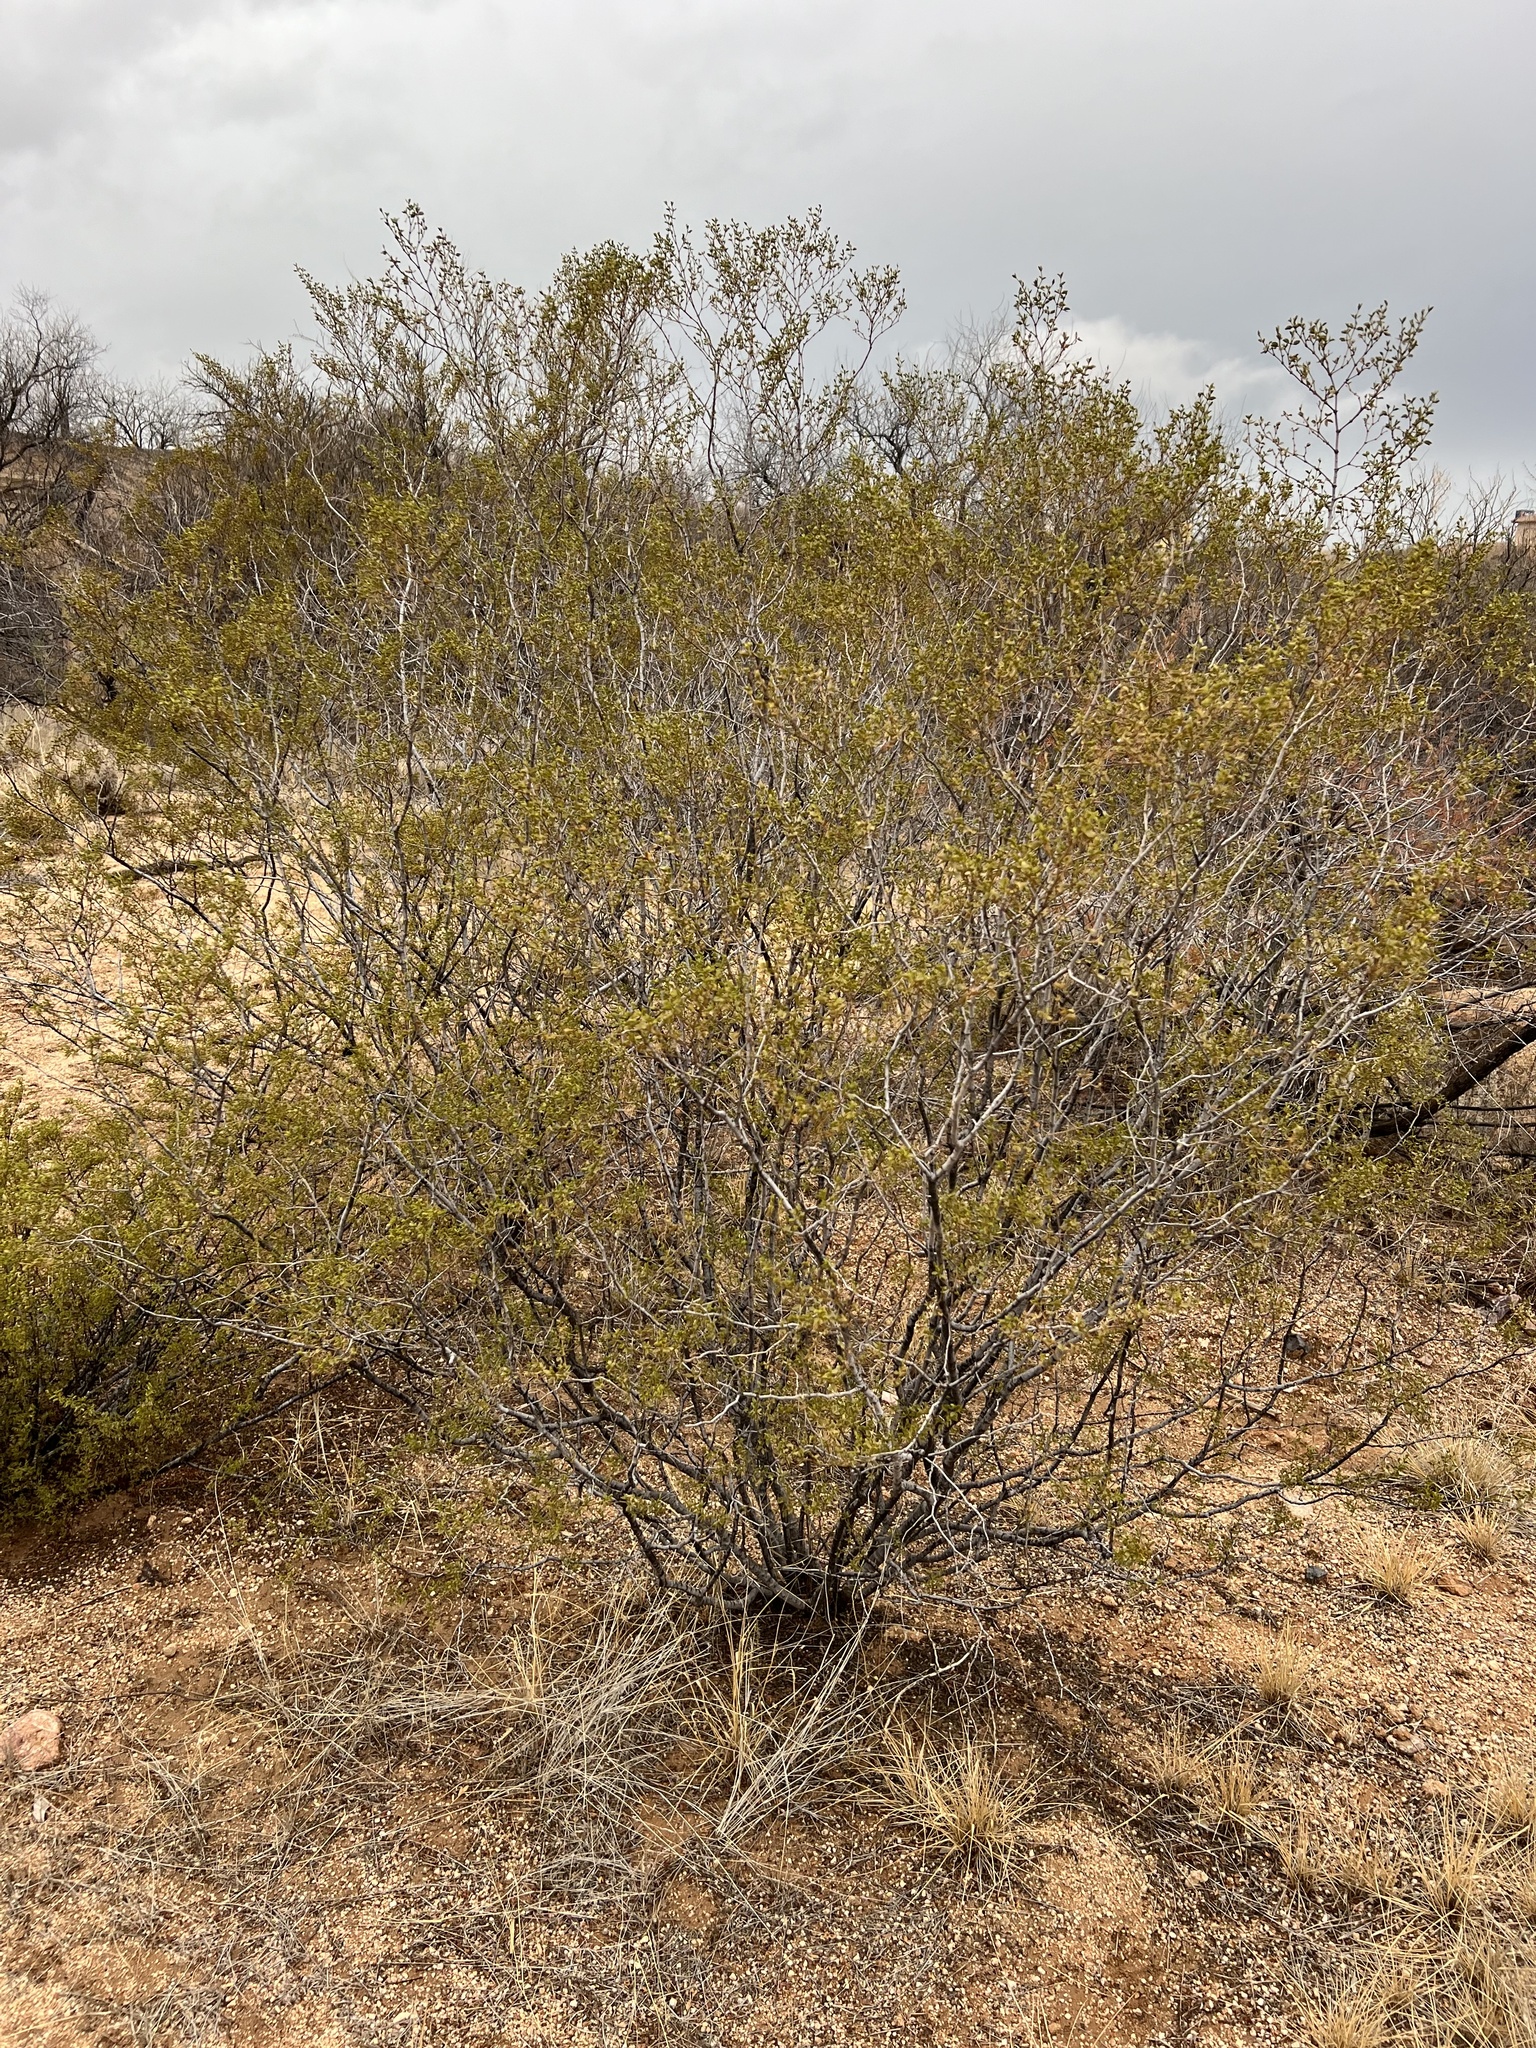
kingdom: Plantae
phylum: Tracheophyta
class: Magnoliopsida
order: Zygophyllales
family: Zygophyllaceae
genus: Larrea
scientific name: Larrea tridentata
